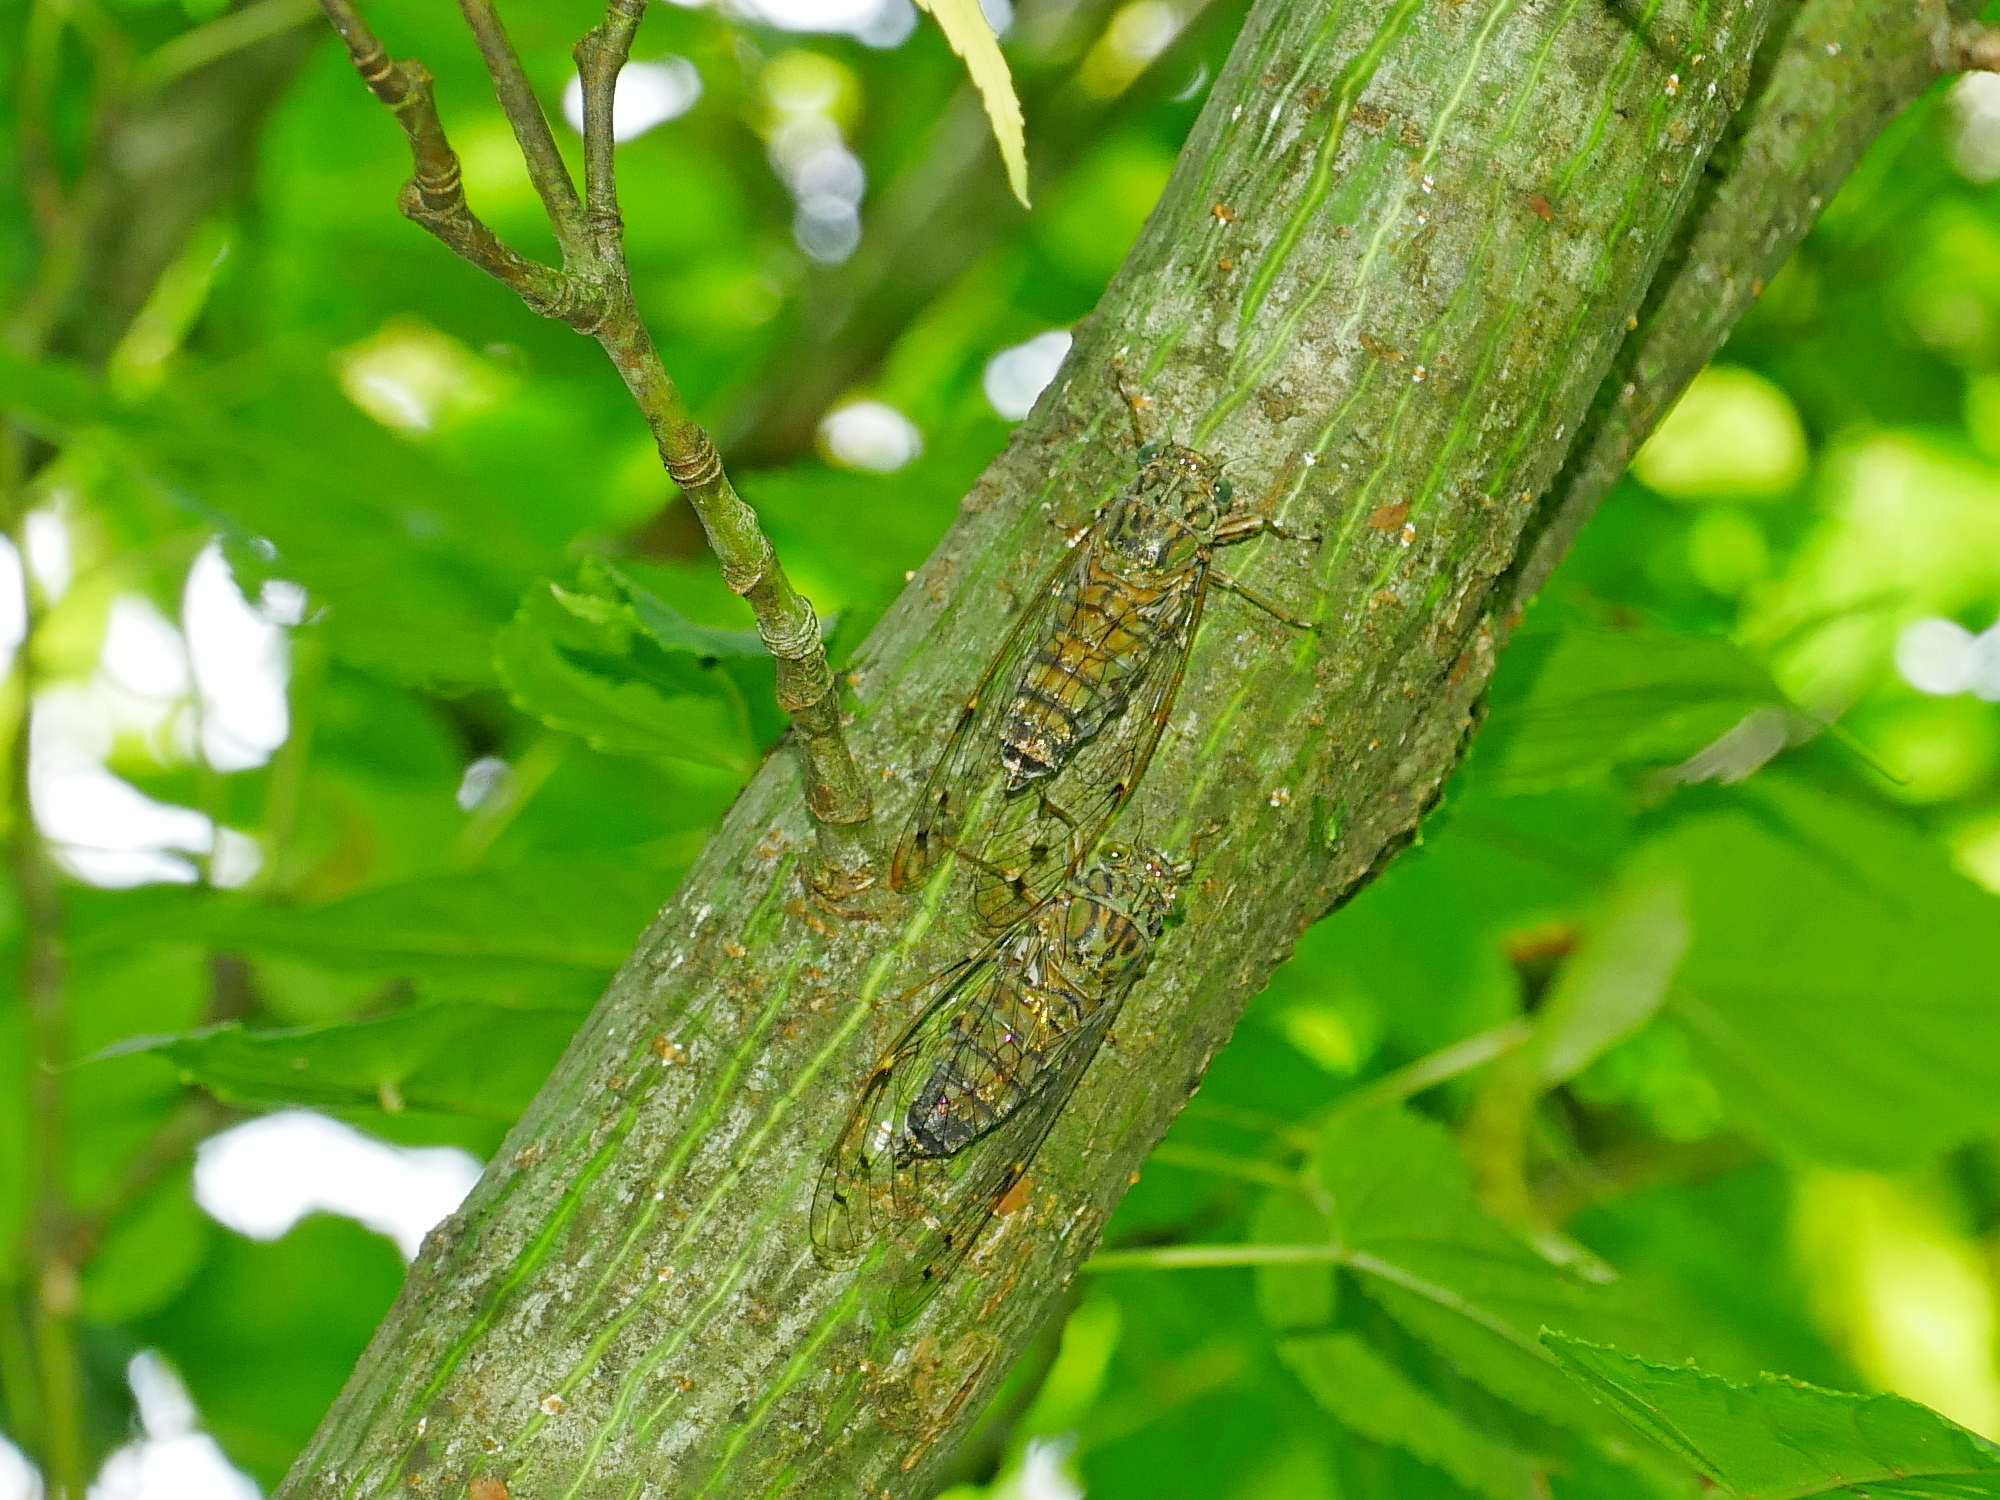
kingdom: Animalia
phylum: Arthropoda
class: Insecta
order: Hemiptera
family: Cicadidae
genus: Euterpnosia
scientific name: Euterpnosia viridifrons
